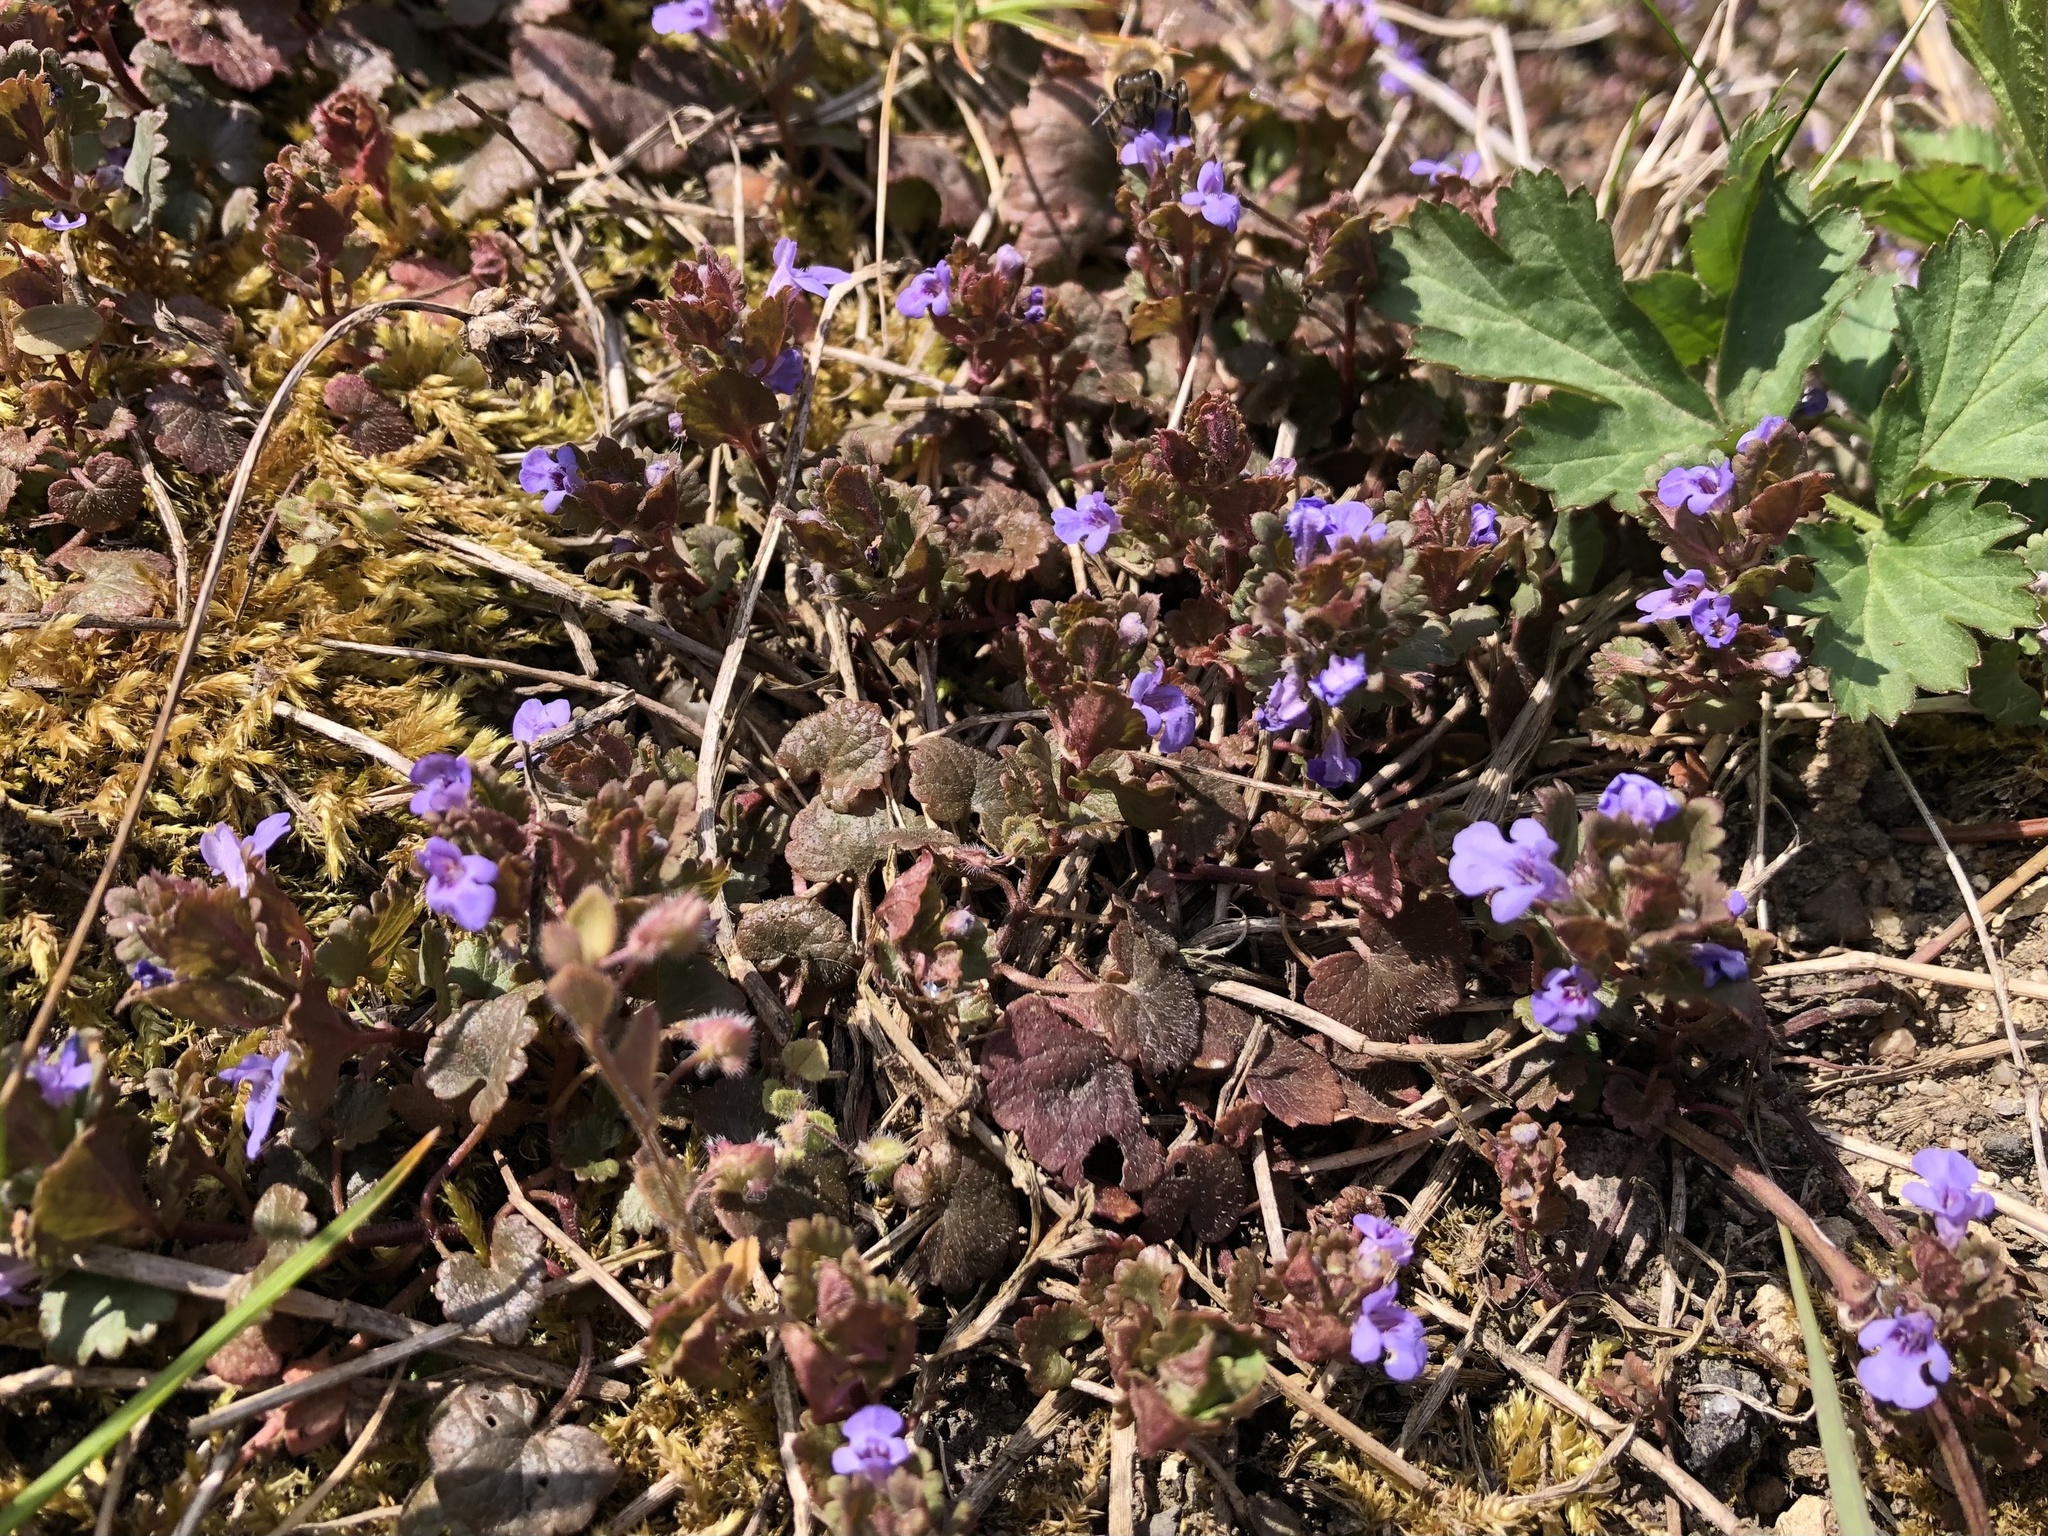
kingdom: Plantae
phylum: Tracheophyta
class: Magnoliopsida
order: Lamiales
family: Lamiaceae
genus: Glechoma
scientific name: Glechoma hederacea
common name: Ground ivy
